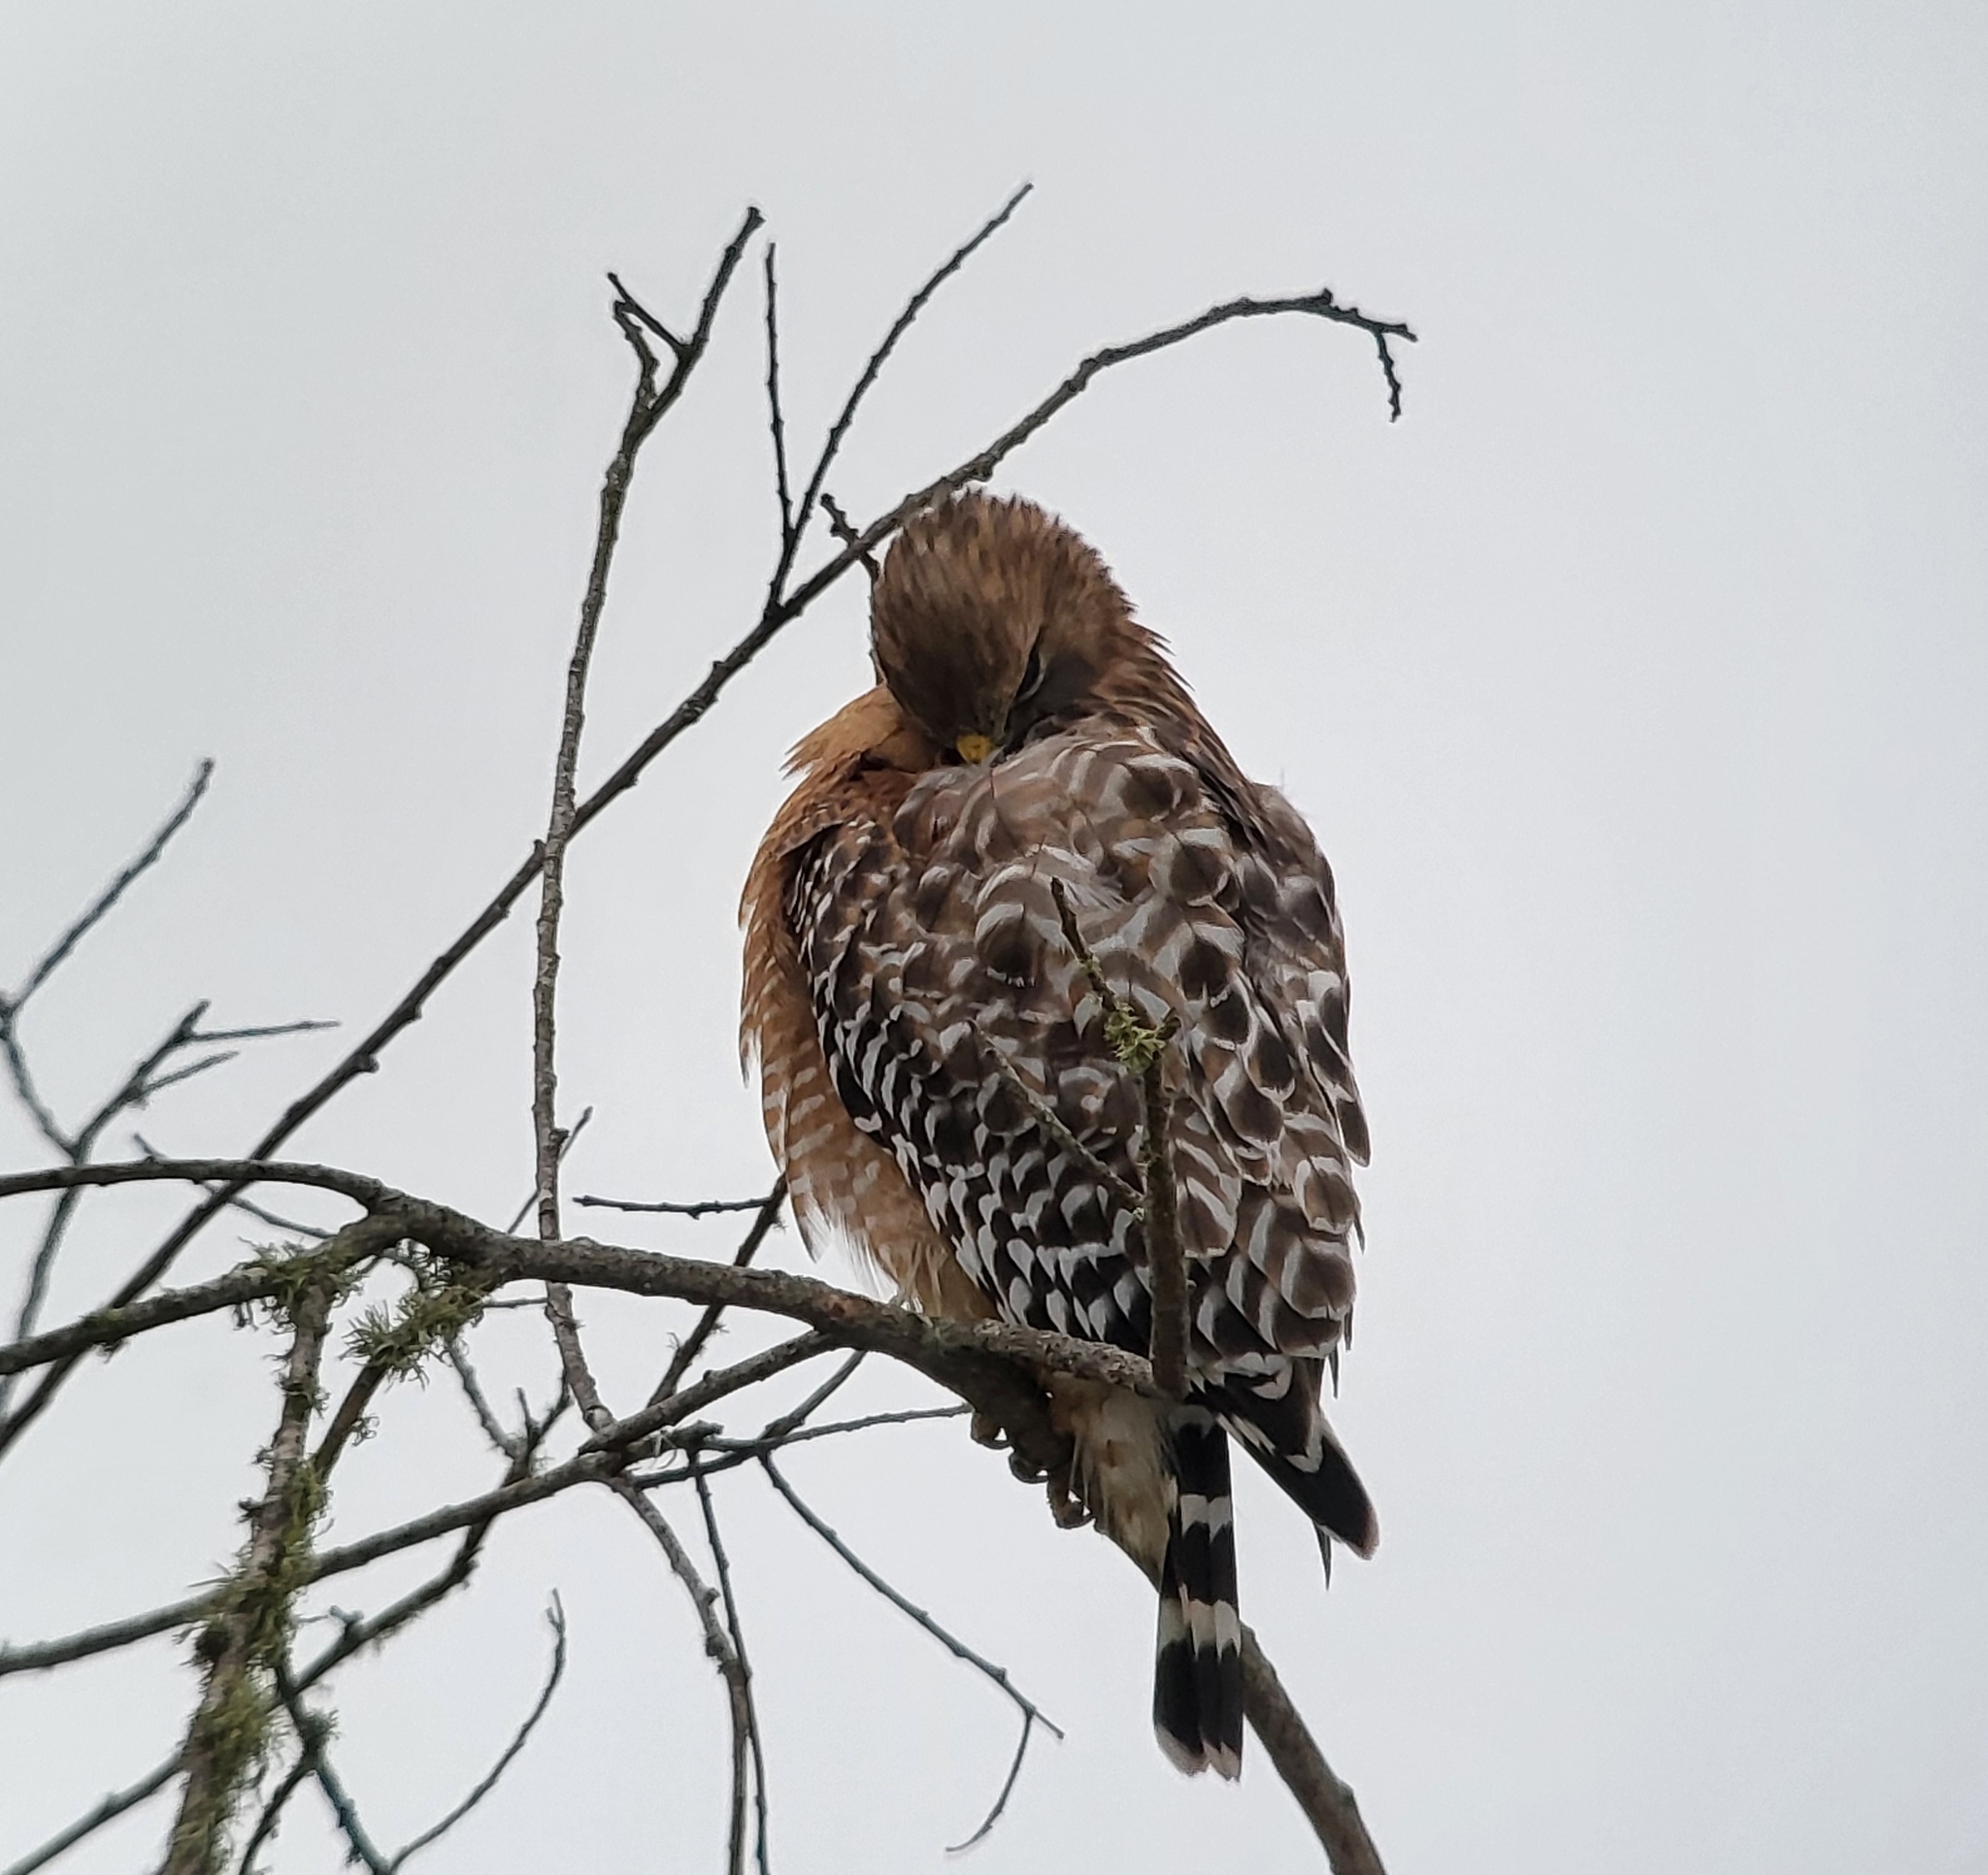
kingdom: Animalia
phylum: Chordata
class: Aves
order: Accipitriformes
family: Accipitridae
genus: Buteo
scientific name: Buteo lineatus
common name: Red-shouldered hawk
